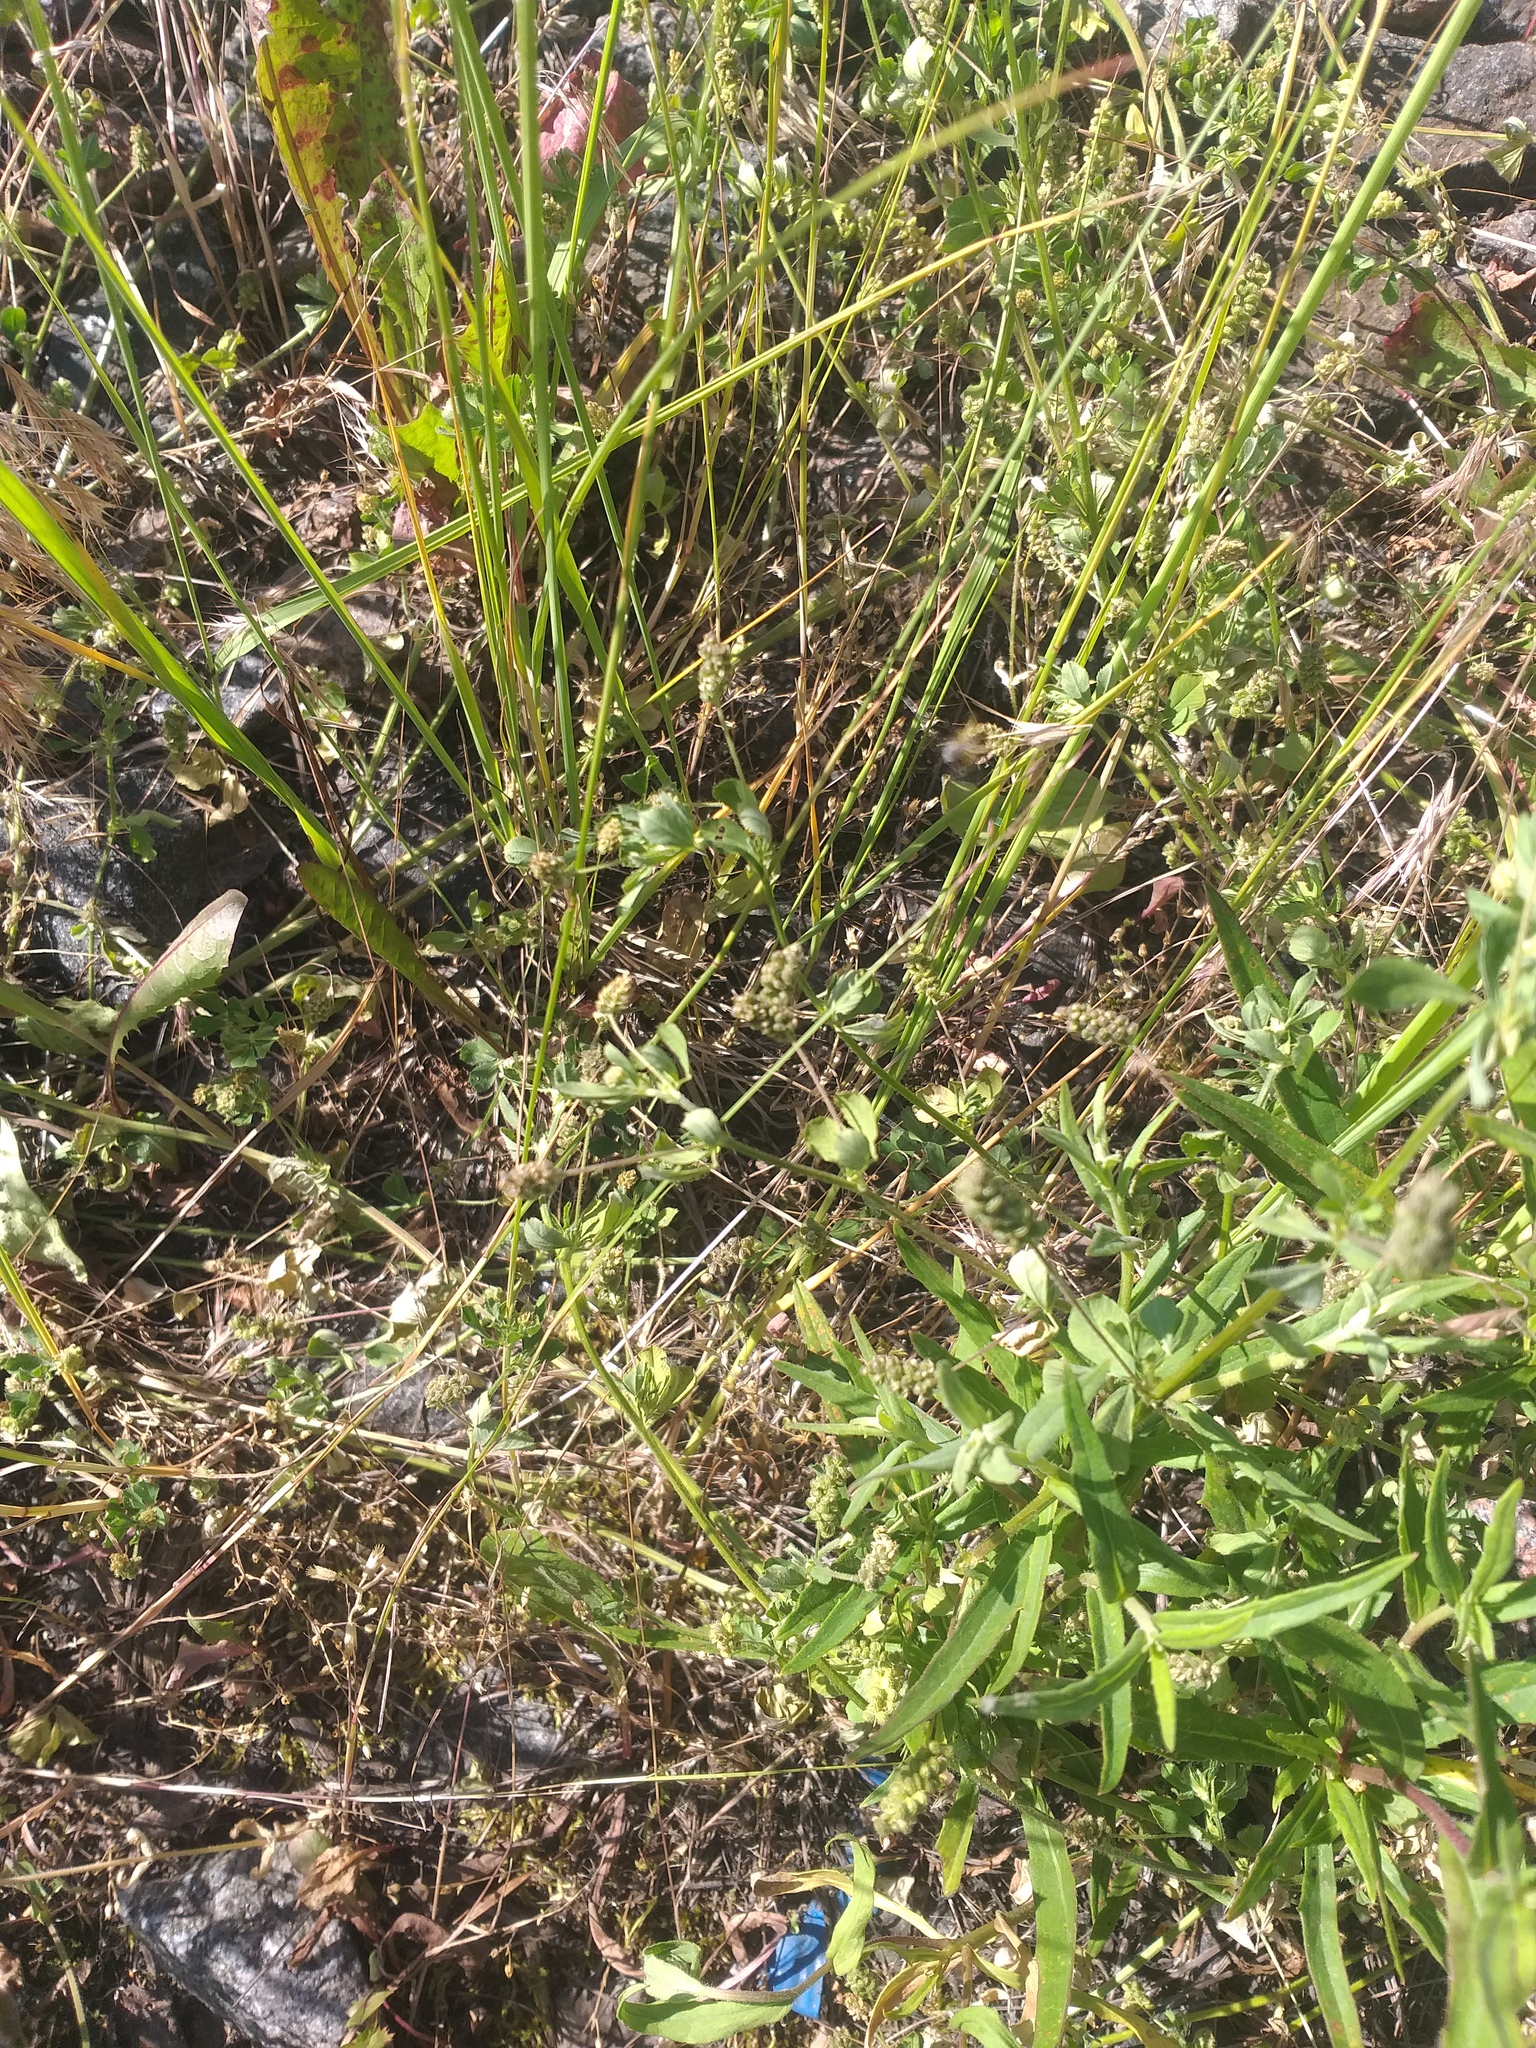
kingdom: Plantae
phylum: Tracheophyta
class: Magnoliopsida
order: Fabales
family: Fabaceae
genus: Medicago
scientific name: Medicago lupulina
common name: Black medick
